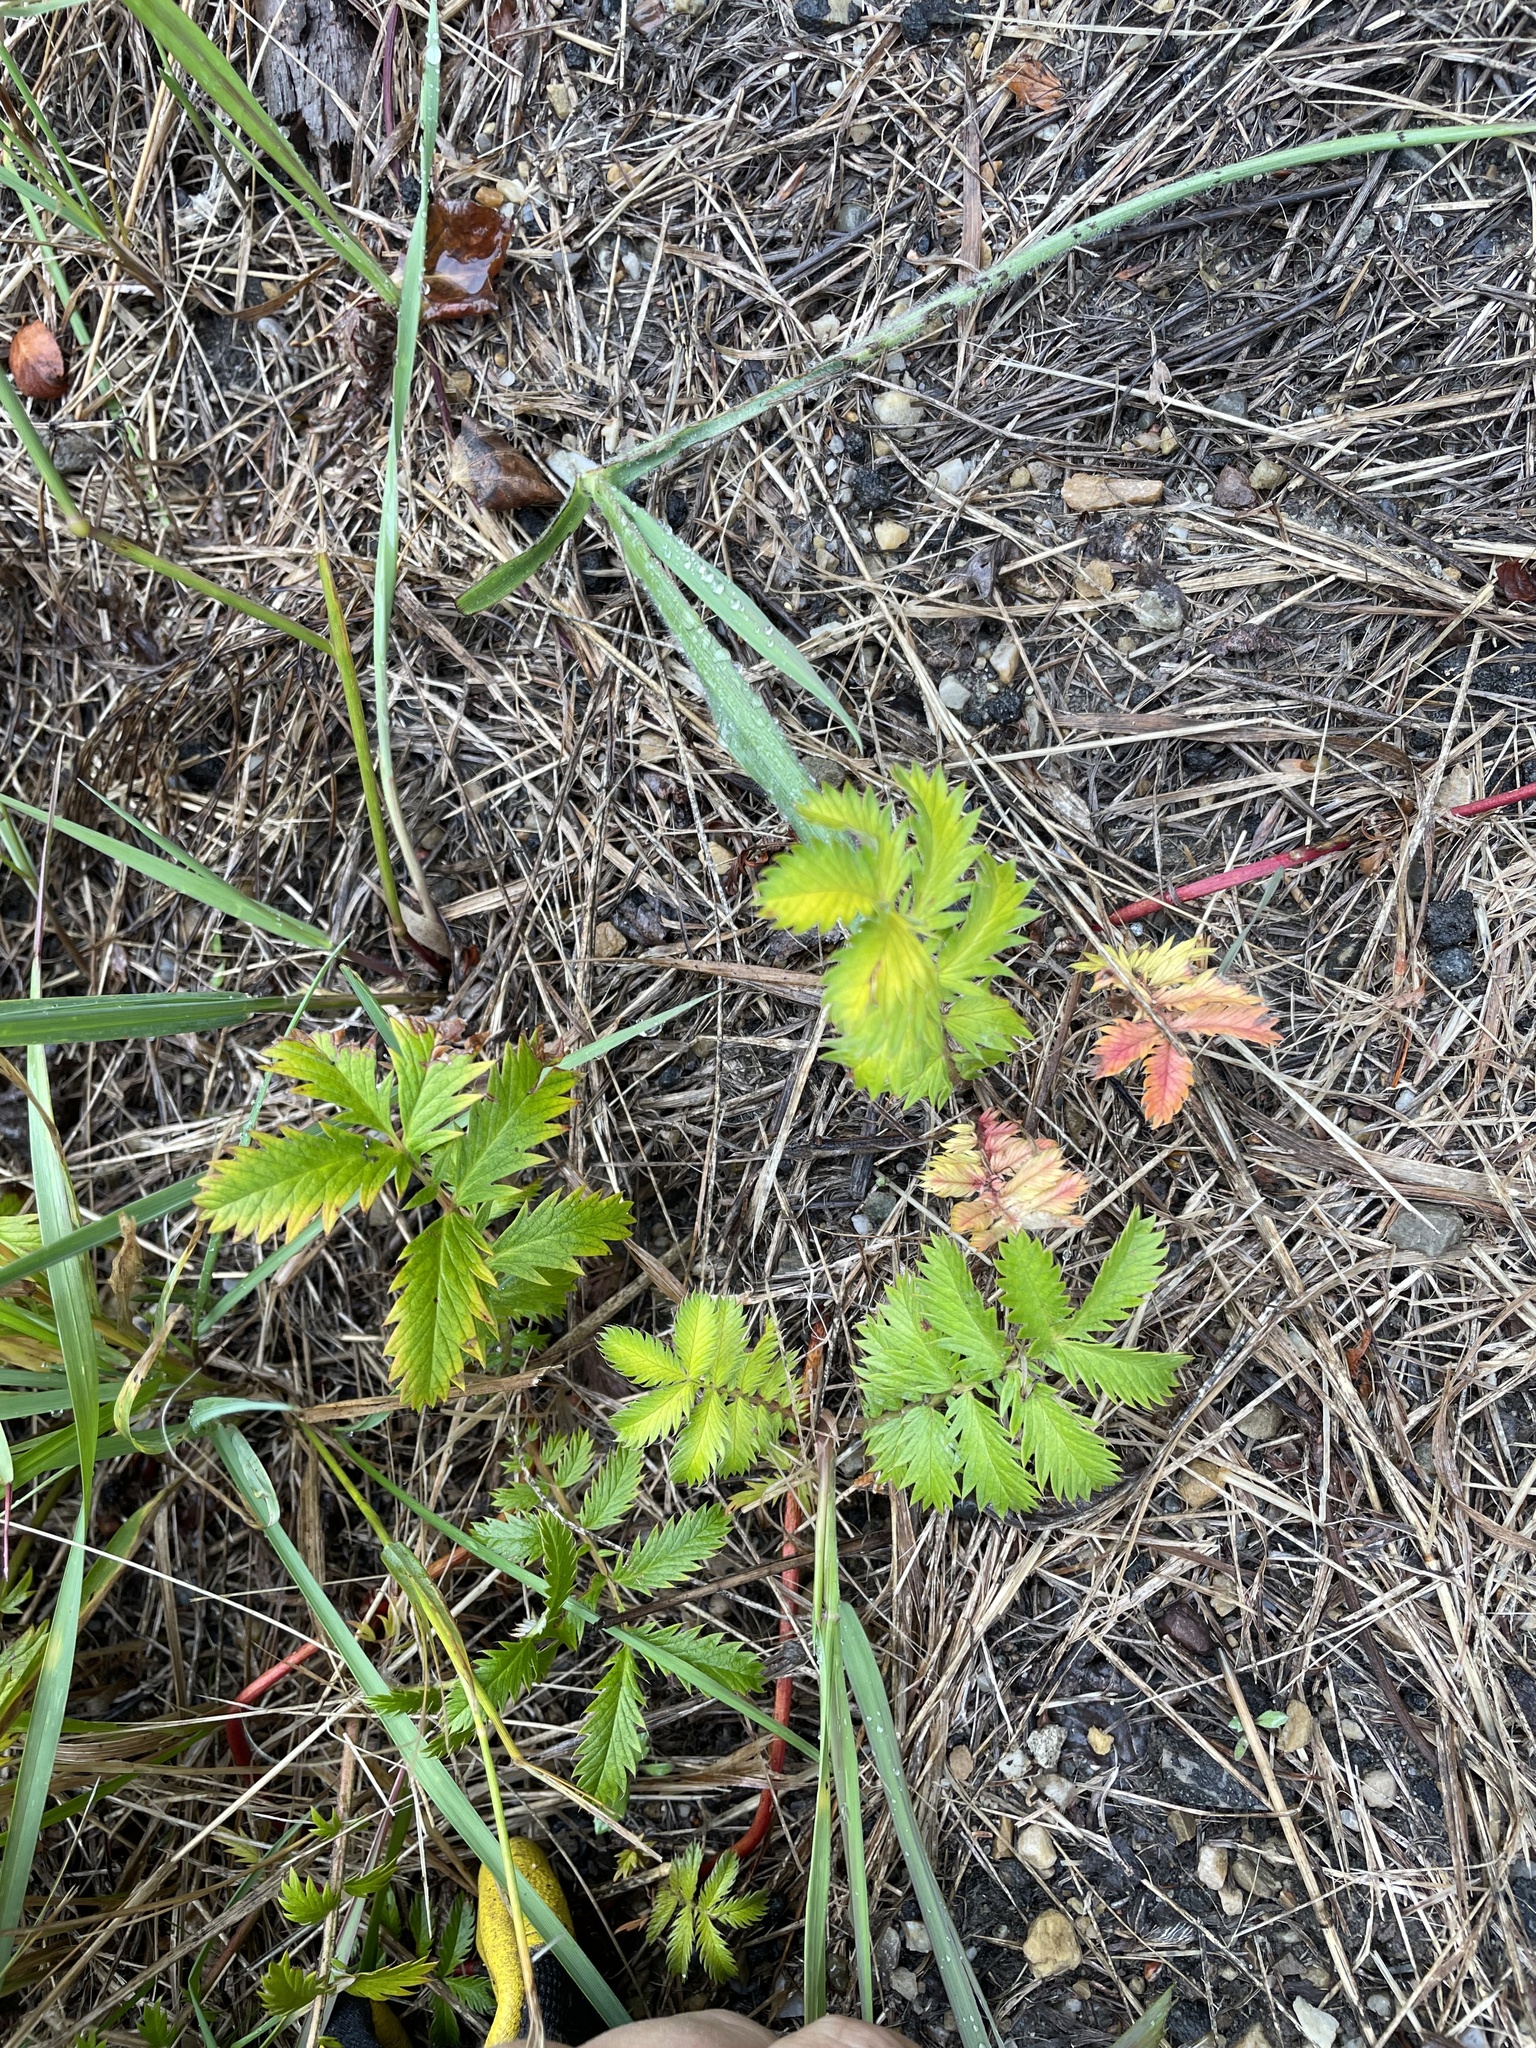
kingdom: Plantae
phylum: Tracheophyta
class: Magnoliopsida
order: Rosales
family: Rosaceae
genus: Argentina
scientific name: Argentina anserina
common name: Common silverweed
